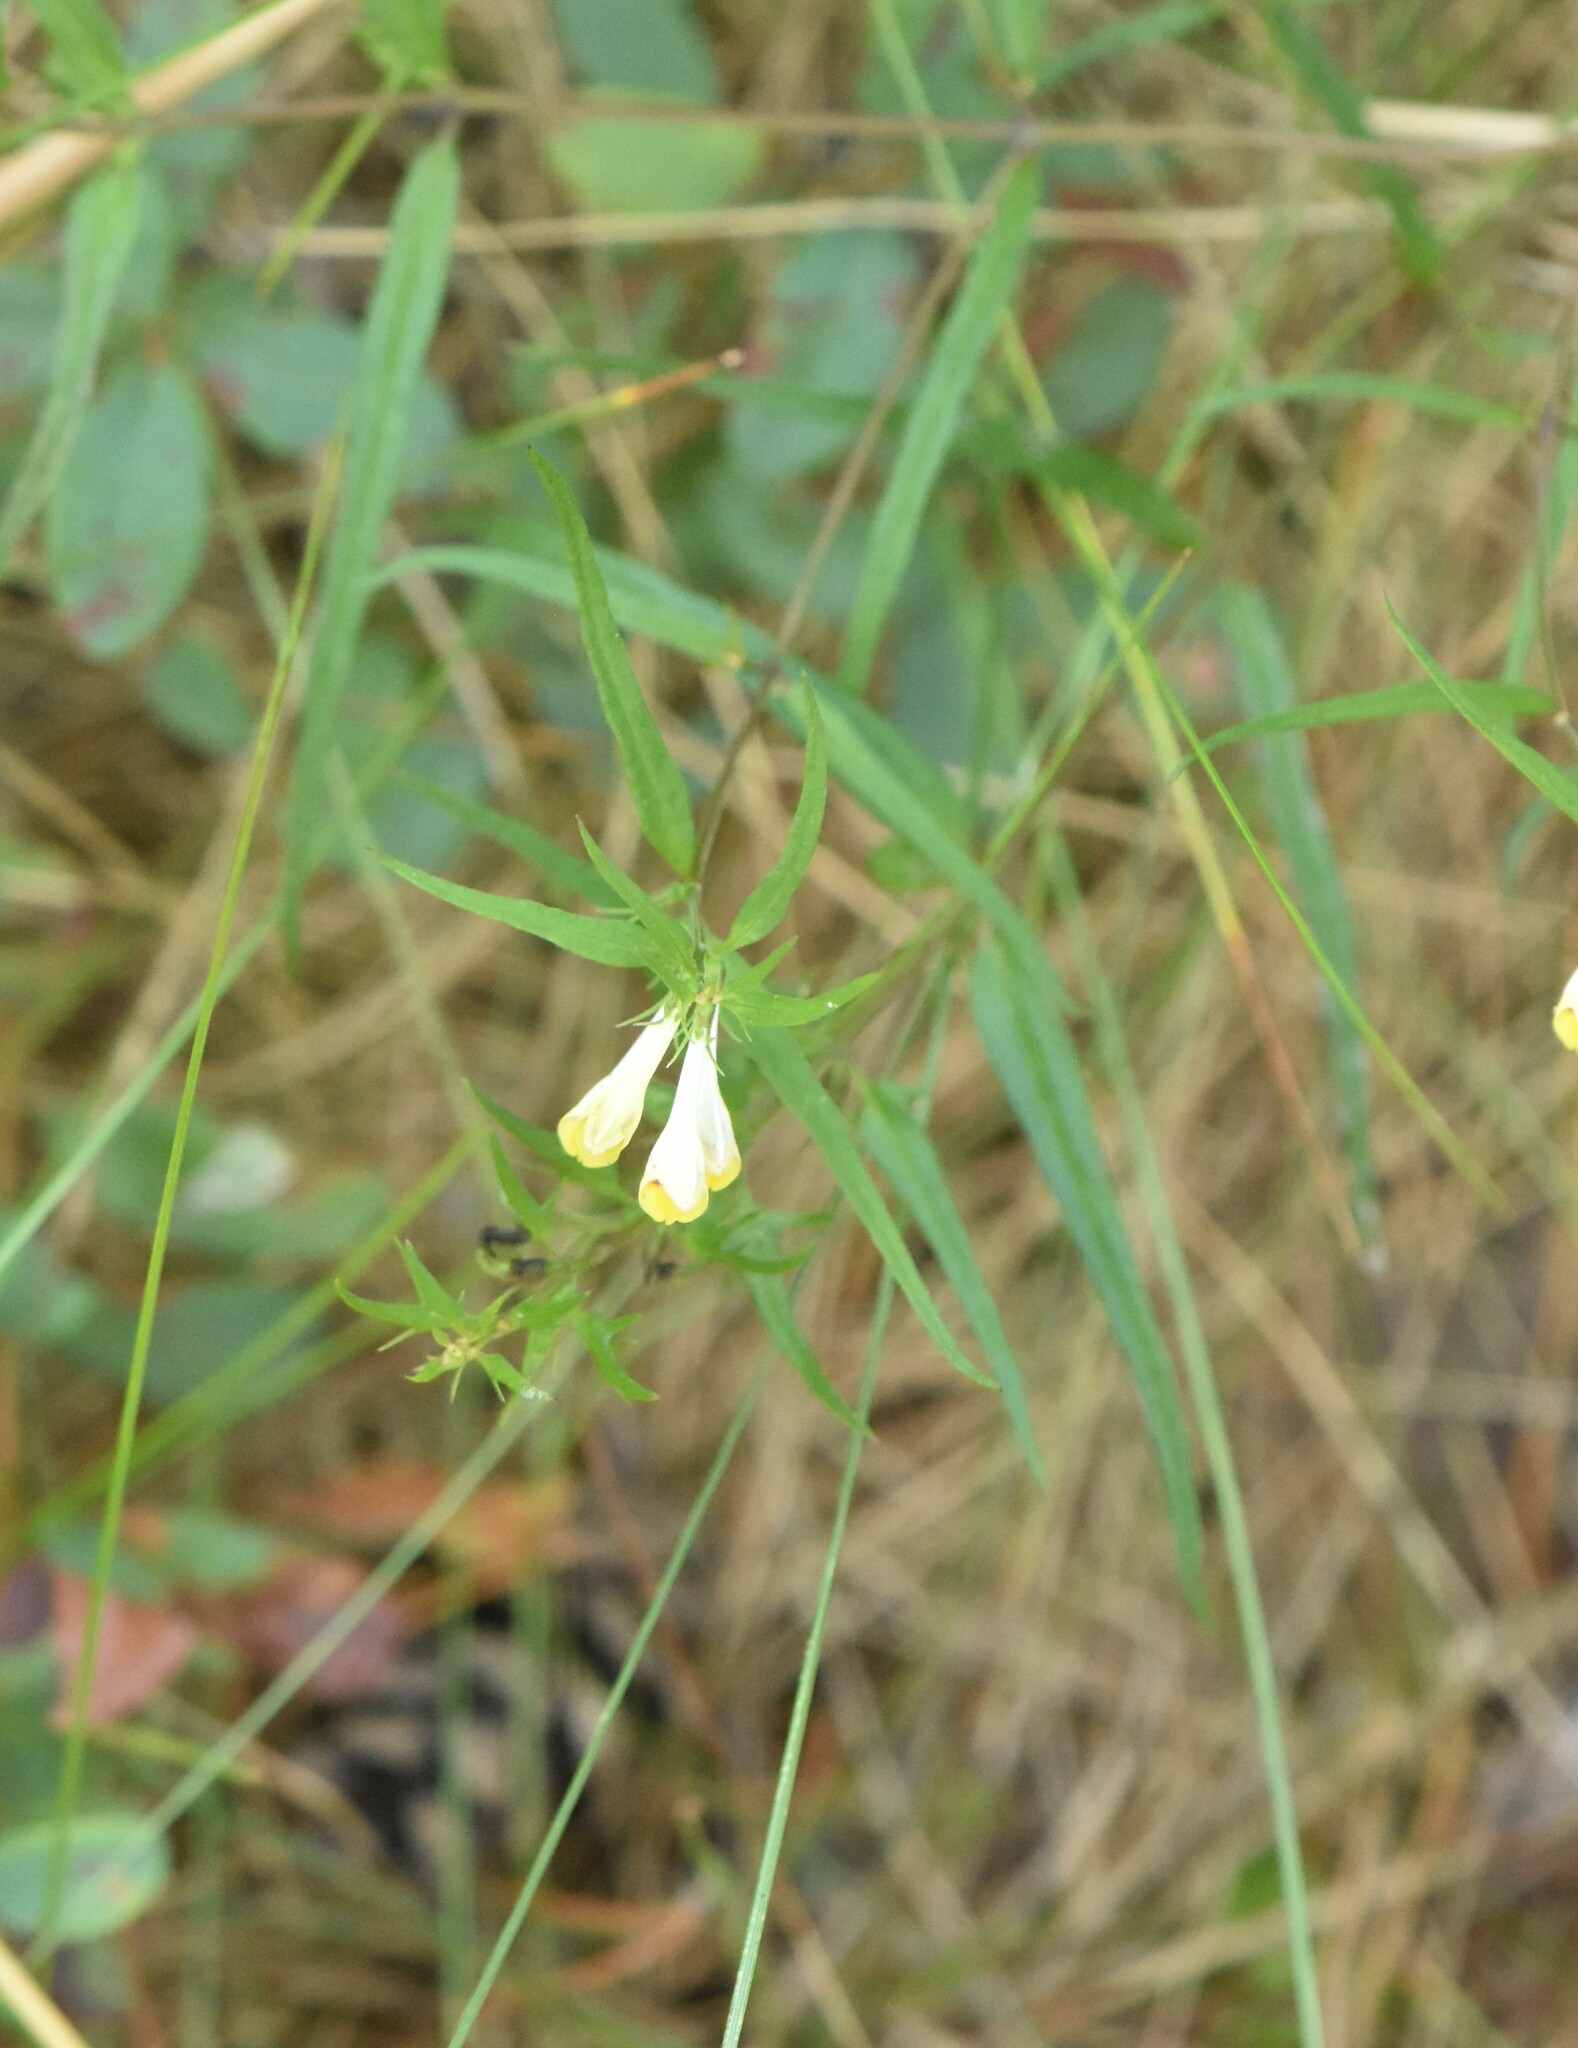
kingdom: Plantae
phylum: Tracheophyta
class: Magnoliopsida
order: Lamiales
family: Orobanchaceae
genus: Melampyrum
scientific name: Melampyrum pratense
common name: Common cow-wheat
